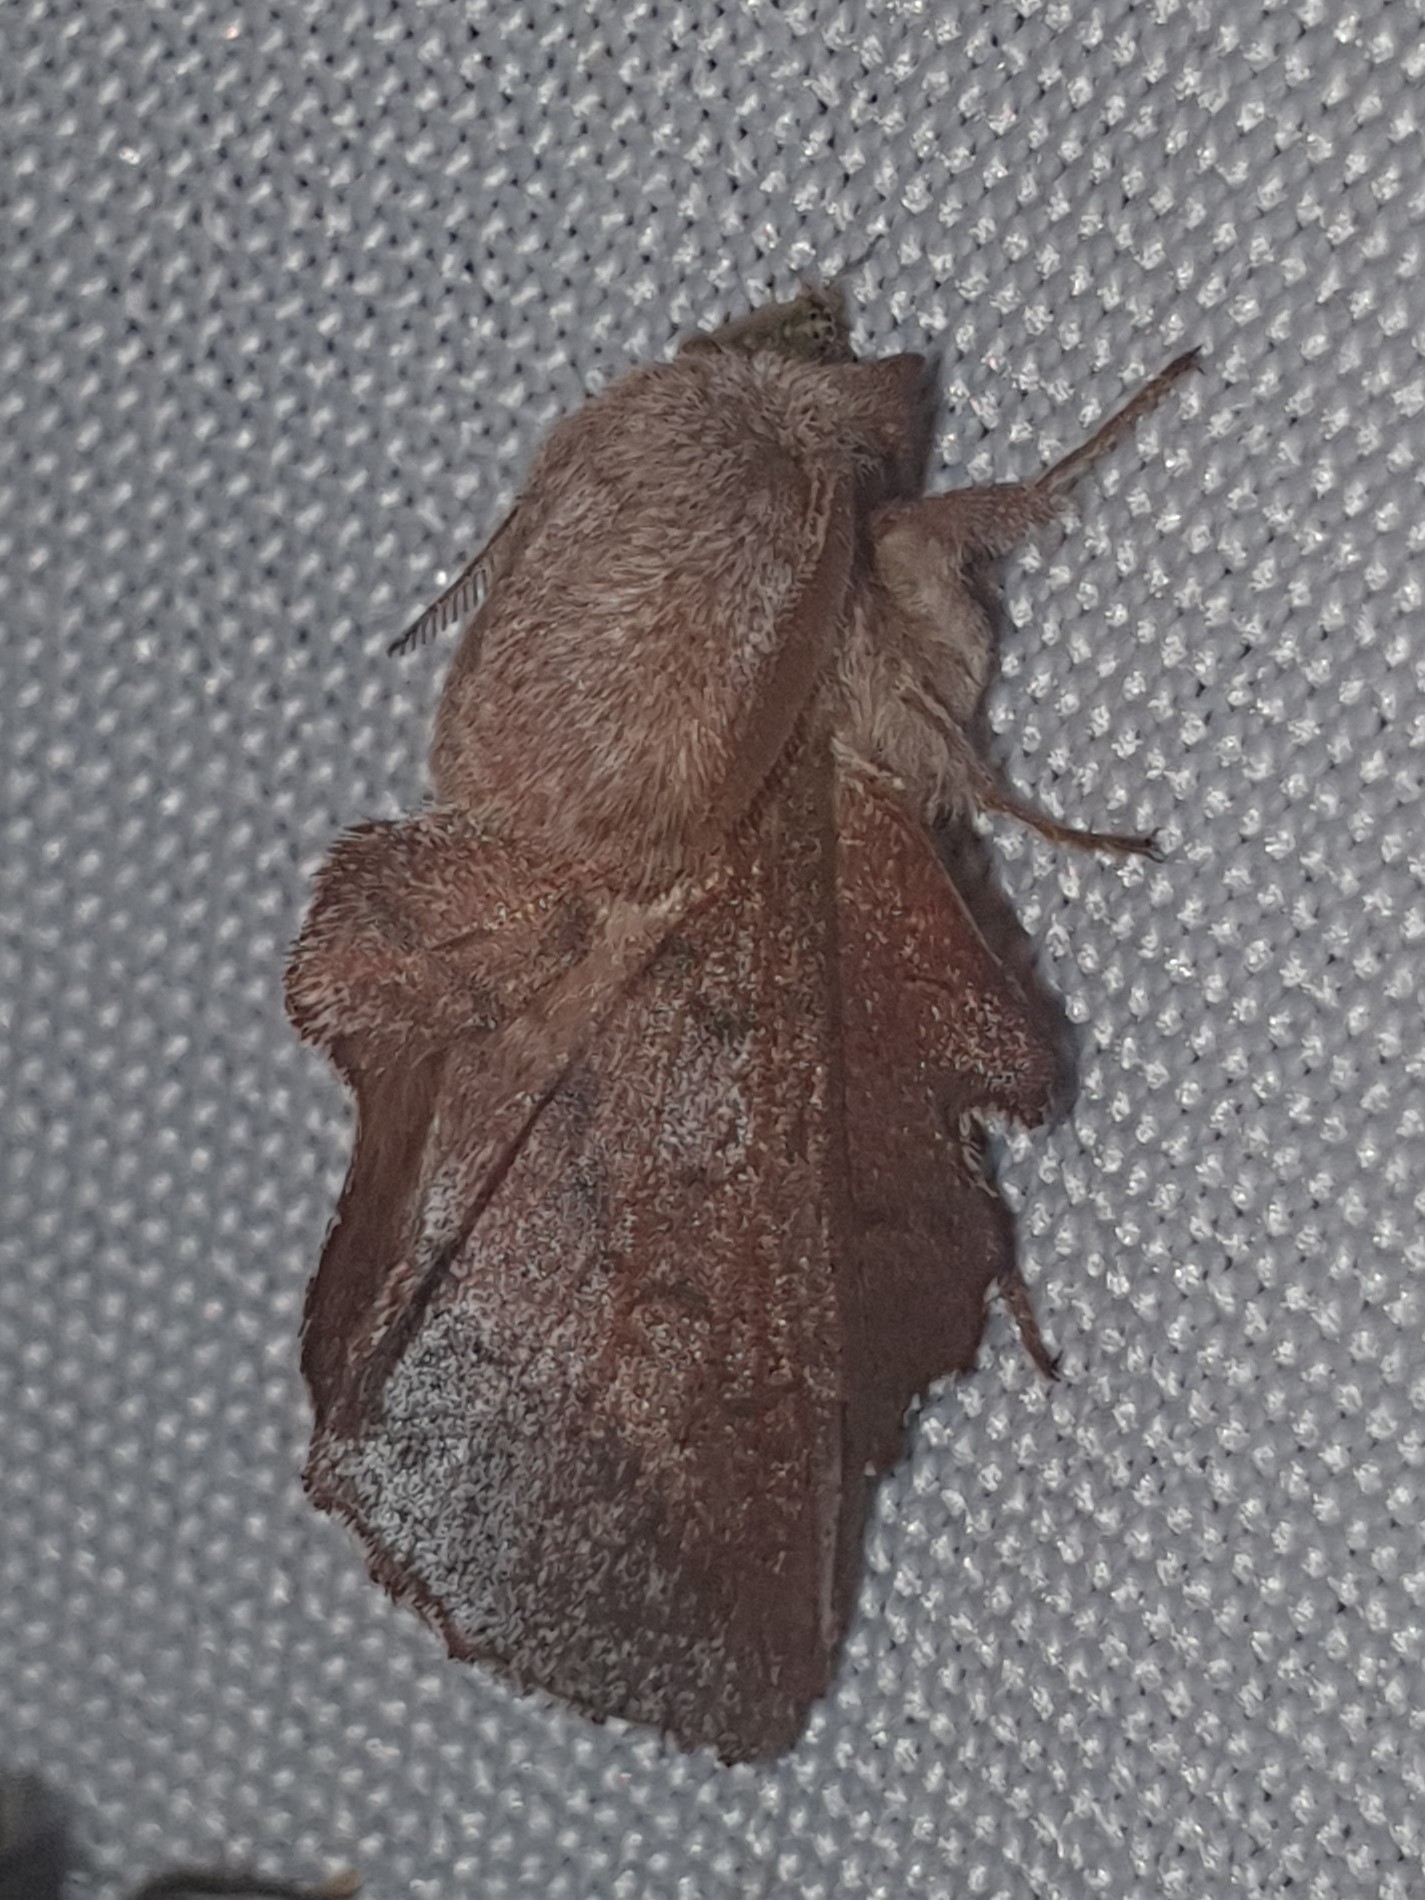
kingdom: Animalia
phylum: Arthropoda
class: Insecta
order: Lepidoptera
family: Lasiocampidae
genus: Phyllodesma
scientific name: Phyllodesma tremulifolia
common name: Aspen lappet
